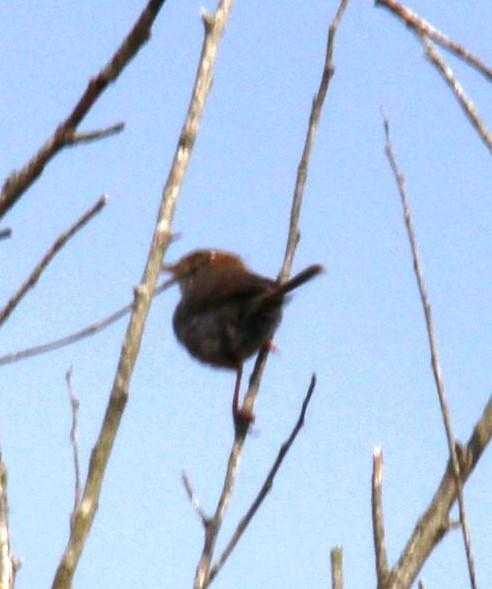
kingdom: Animalia
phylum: Chordata
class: Aves
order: Passeriformes
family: Cisticolidae
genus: Cisticola
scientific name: Cisticola fulvicapilla
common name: Neddicky
